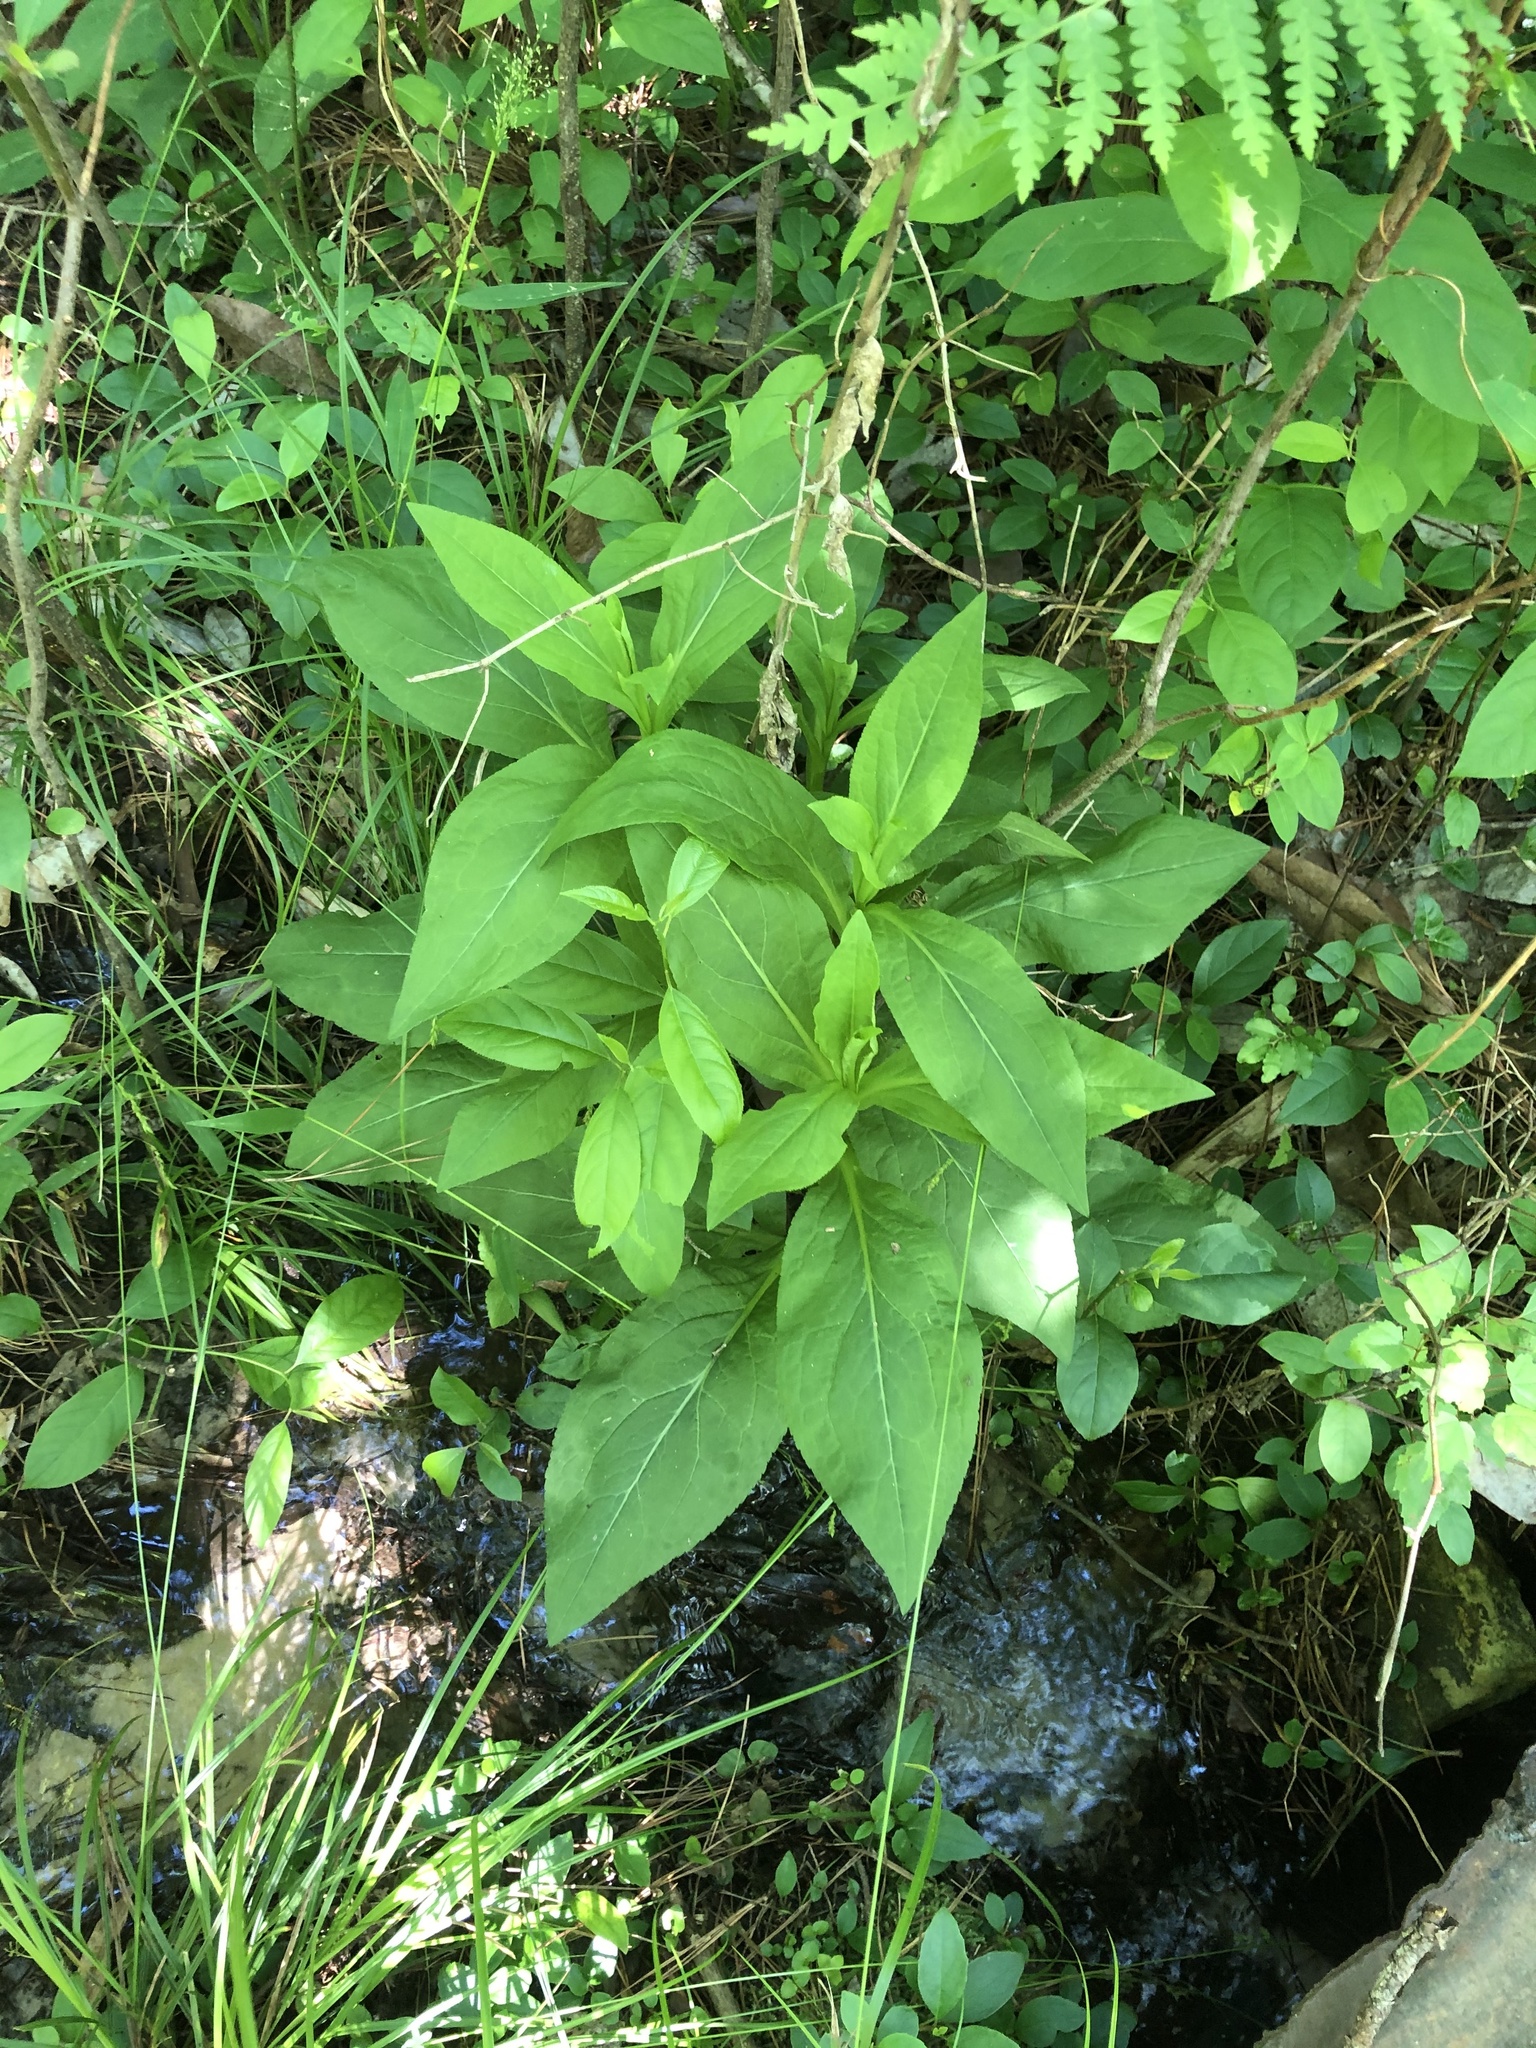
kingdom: Plantae
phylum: Tracheophyta
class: Magnoliopsida
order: Asterales
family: Asteraceae
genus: Solidago
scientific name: Solidago patula
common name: Rough-leaf goldenrod
